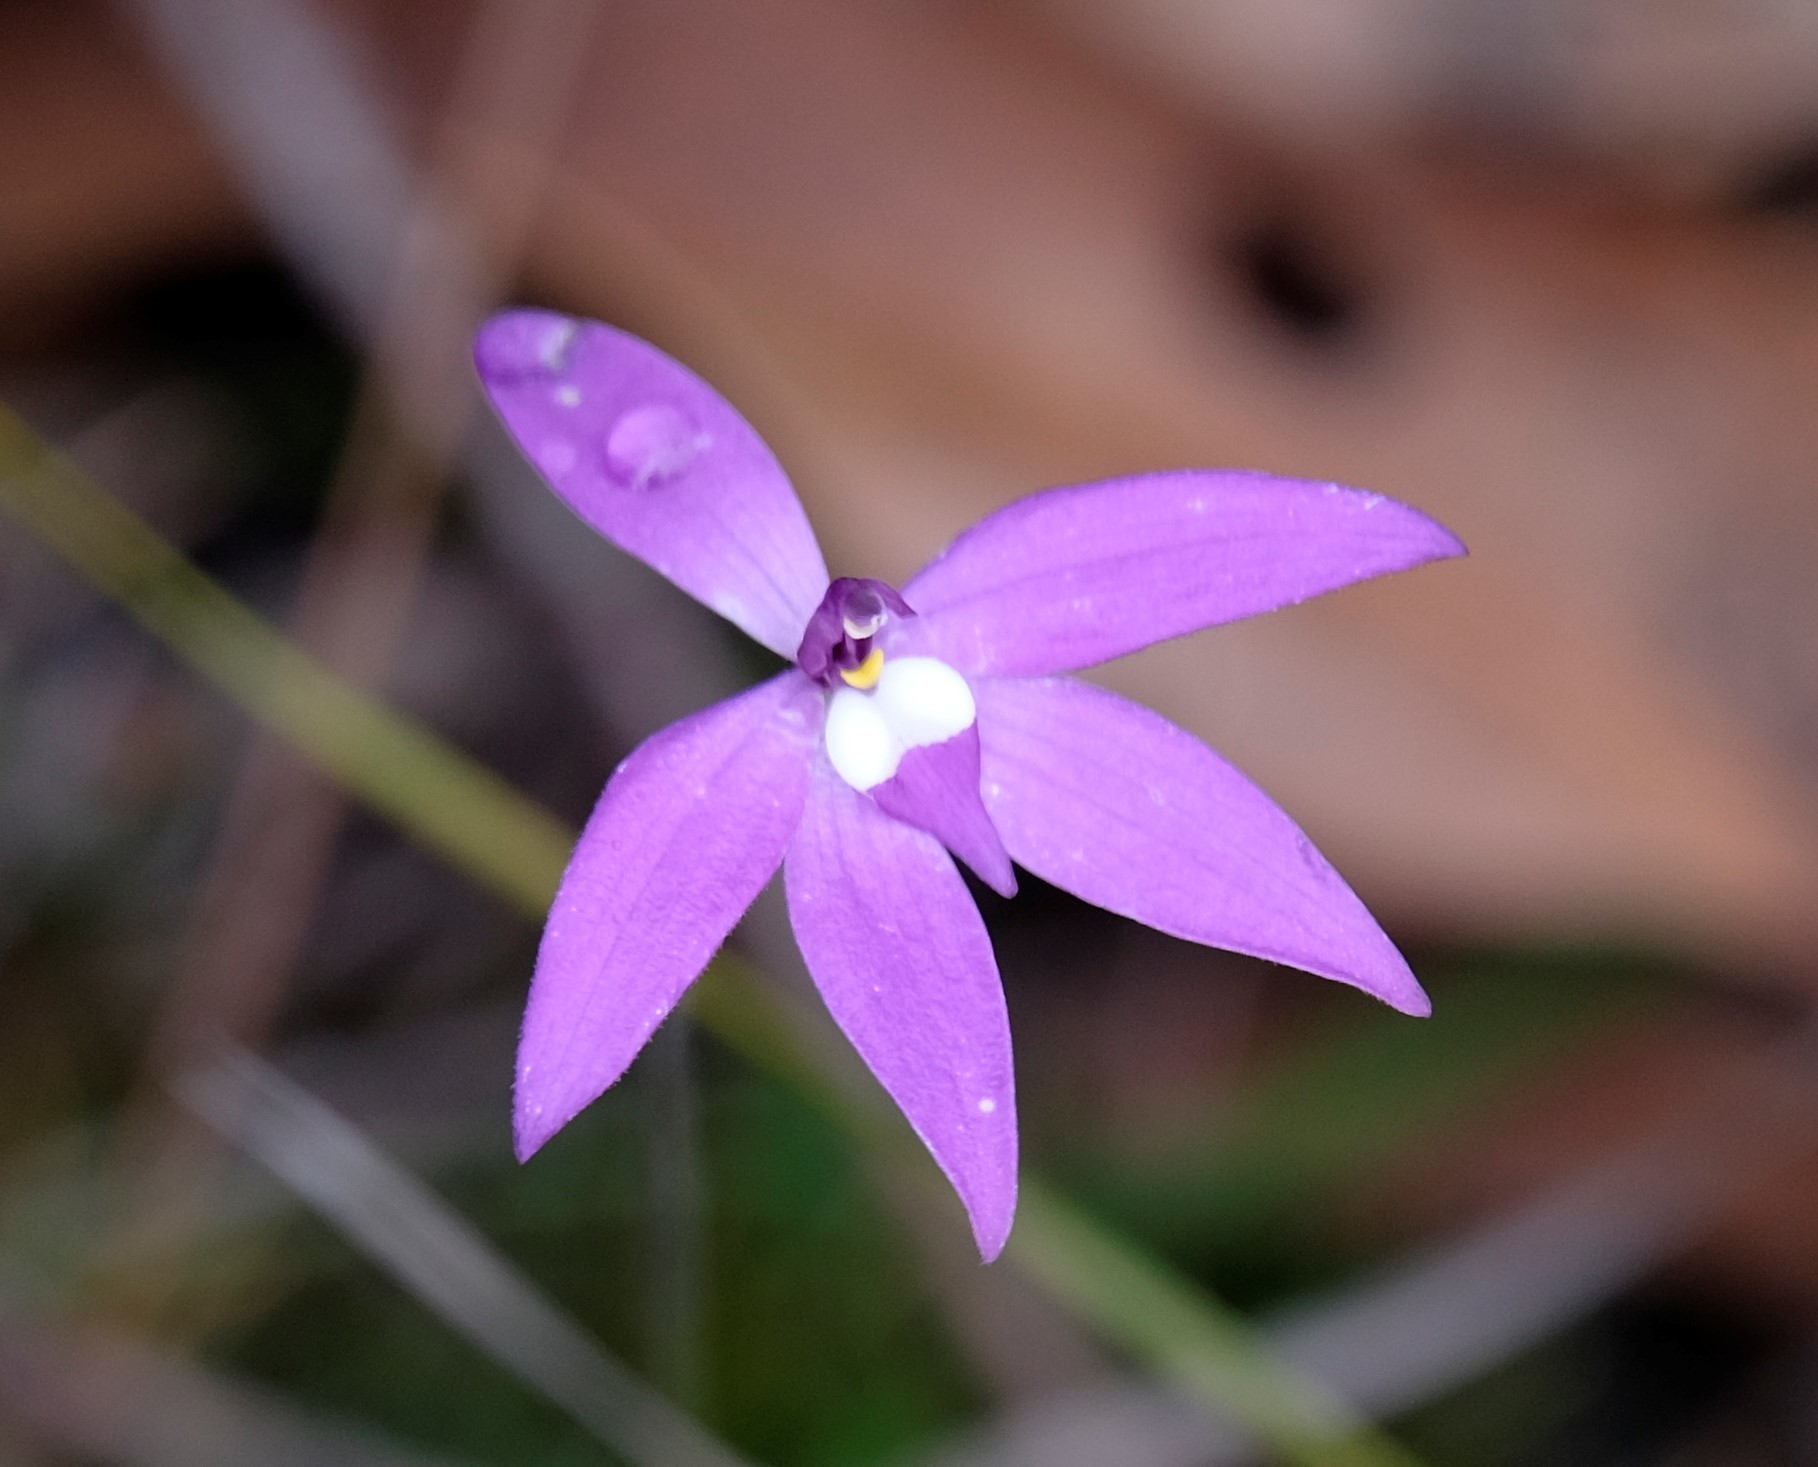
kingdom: Plantae
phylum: Tracheophyta
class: Liliopsida
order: Asparagales
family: Orchidaceae
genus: Caladenia
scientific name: Caladenia major
